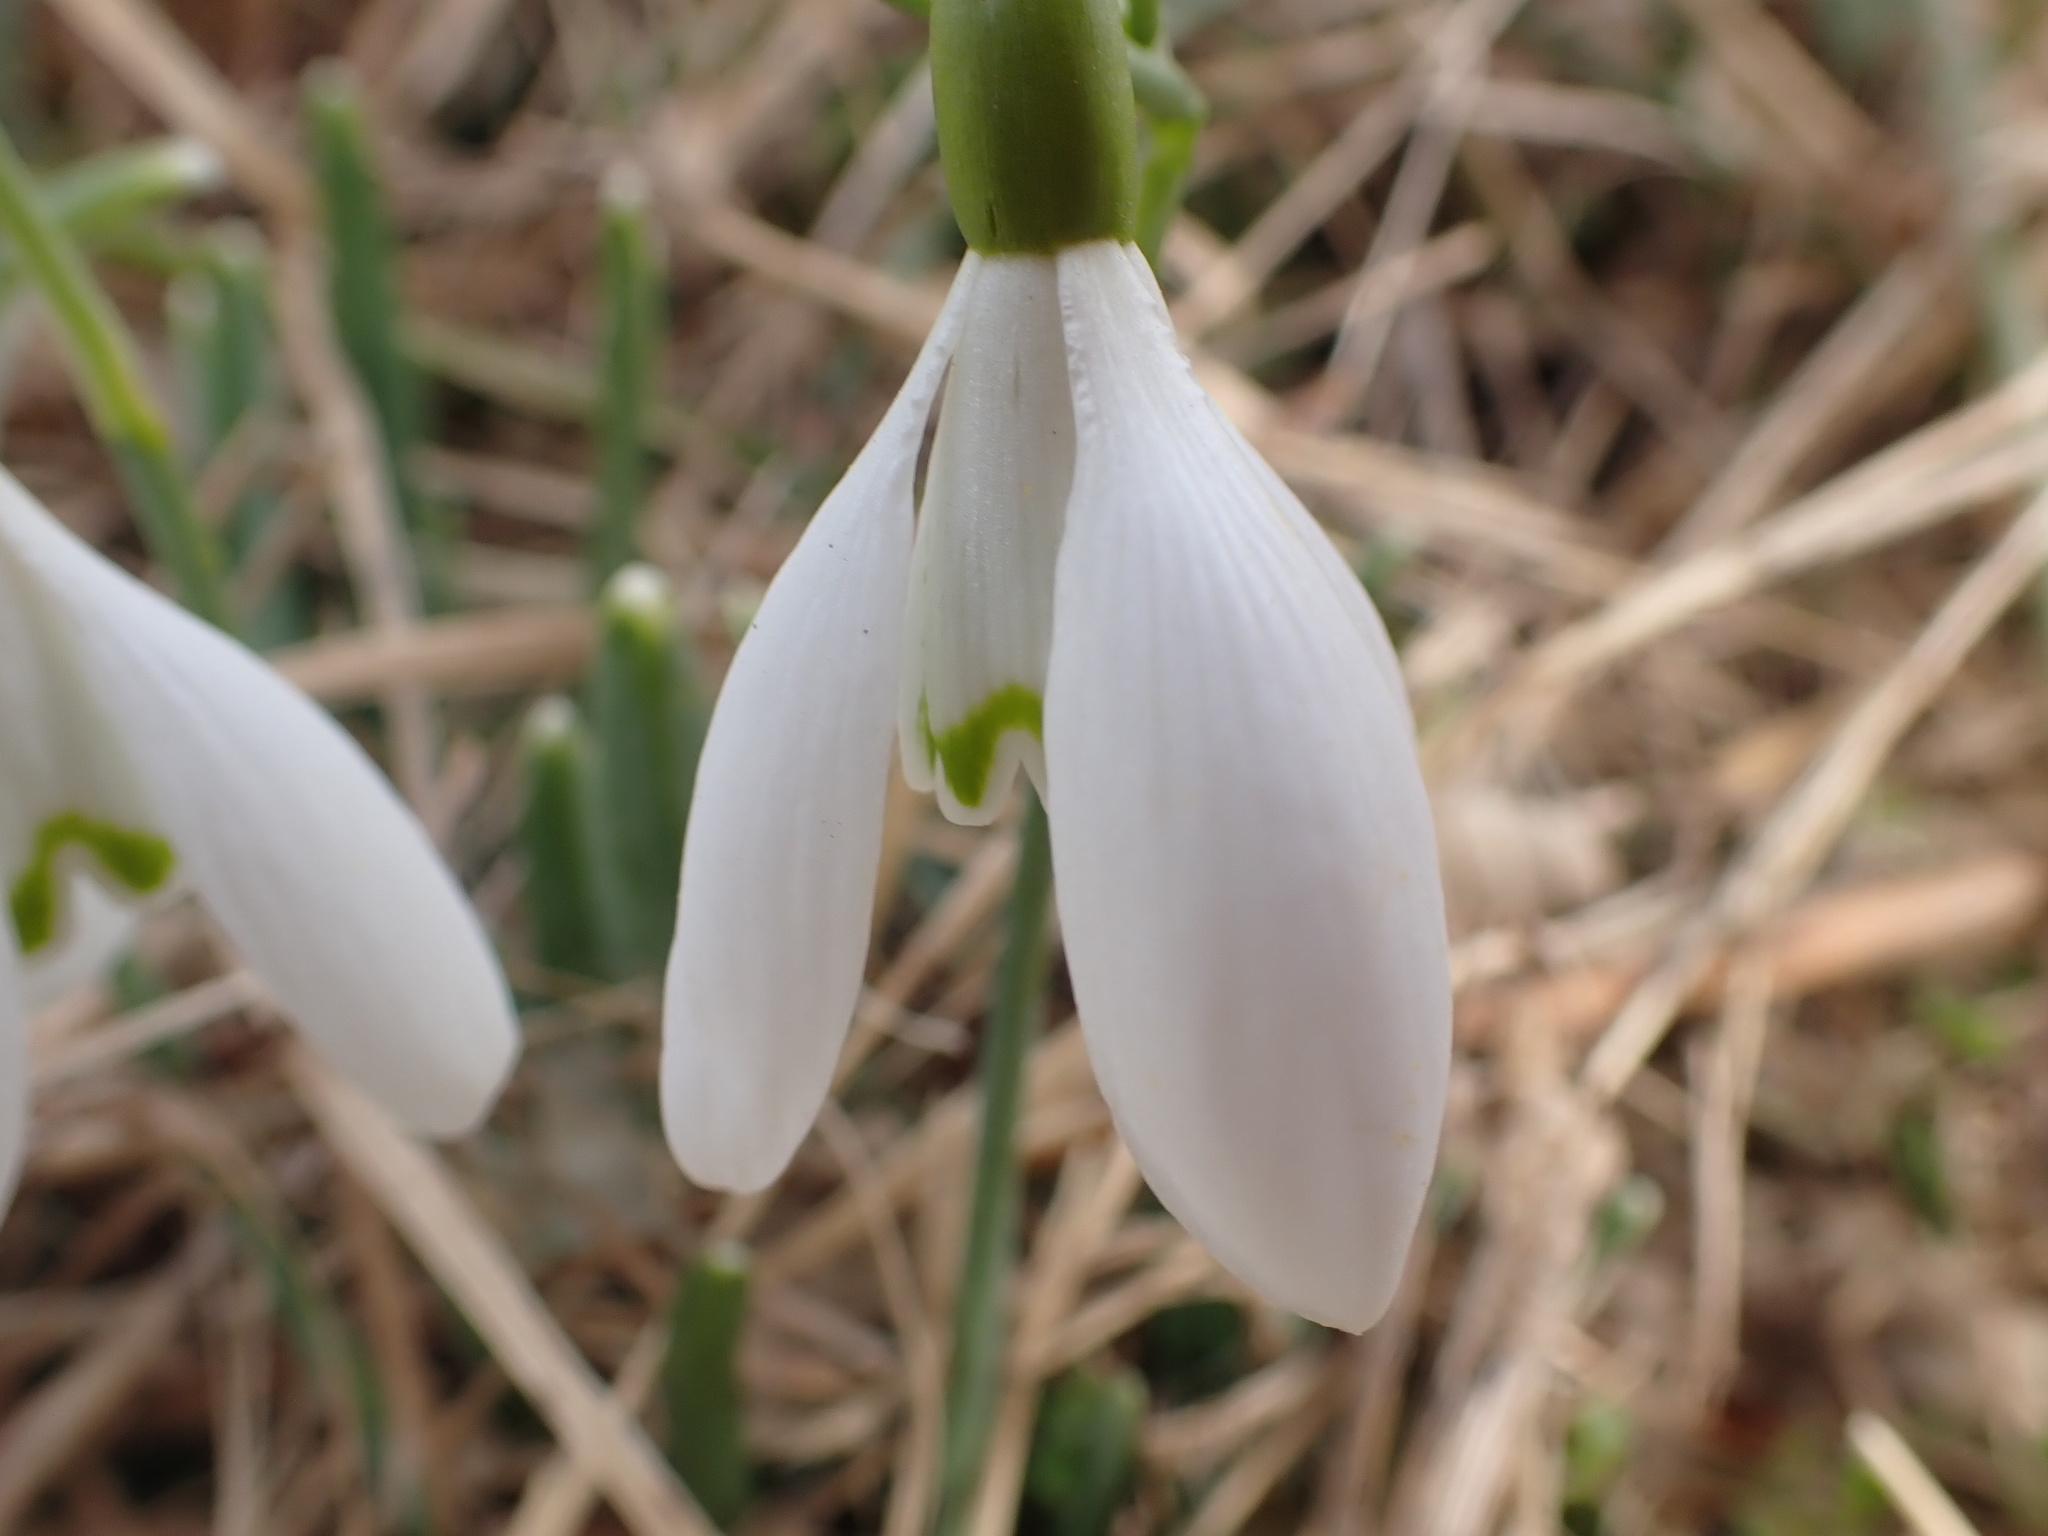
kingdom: Plantae
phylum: Tracheophyta
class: Liliopsida
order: Asparagales
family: Amaryllidaceae
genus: Galanthus
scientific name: Galanthus nivalis
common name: Snowdrop
